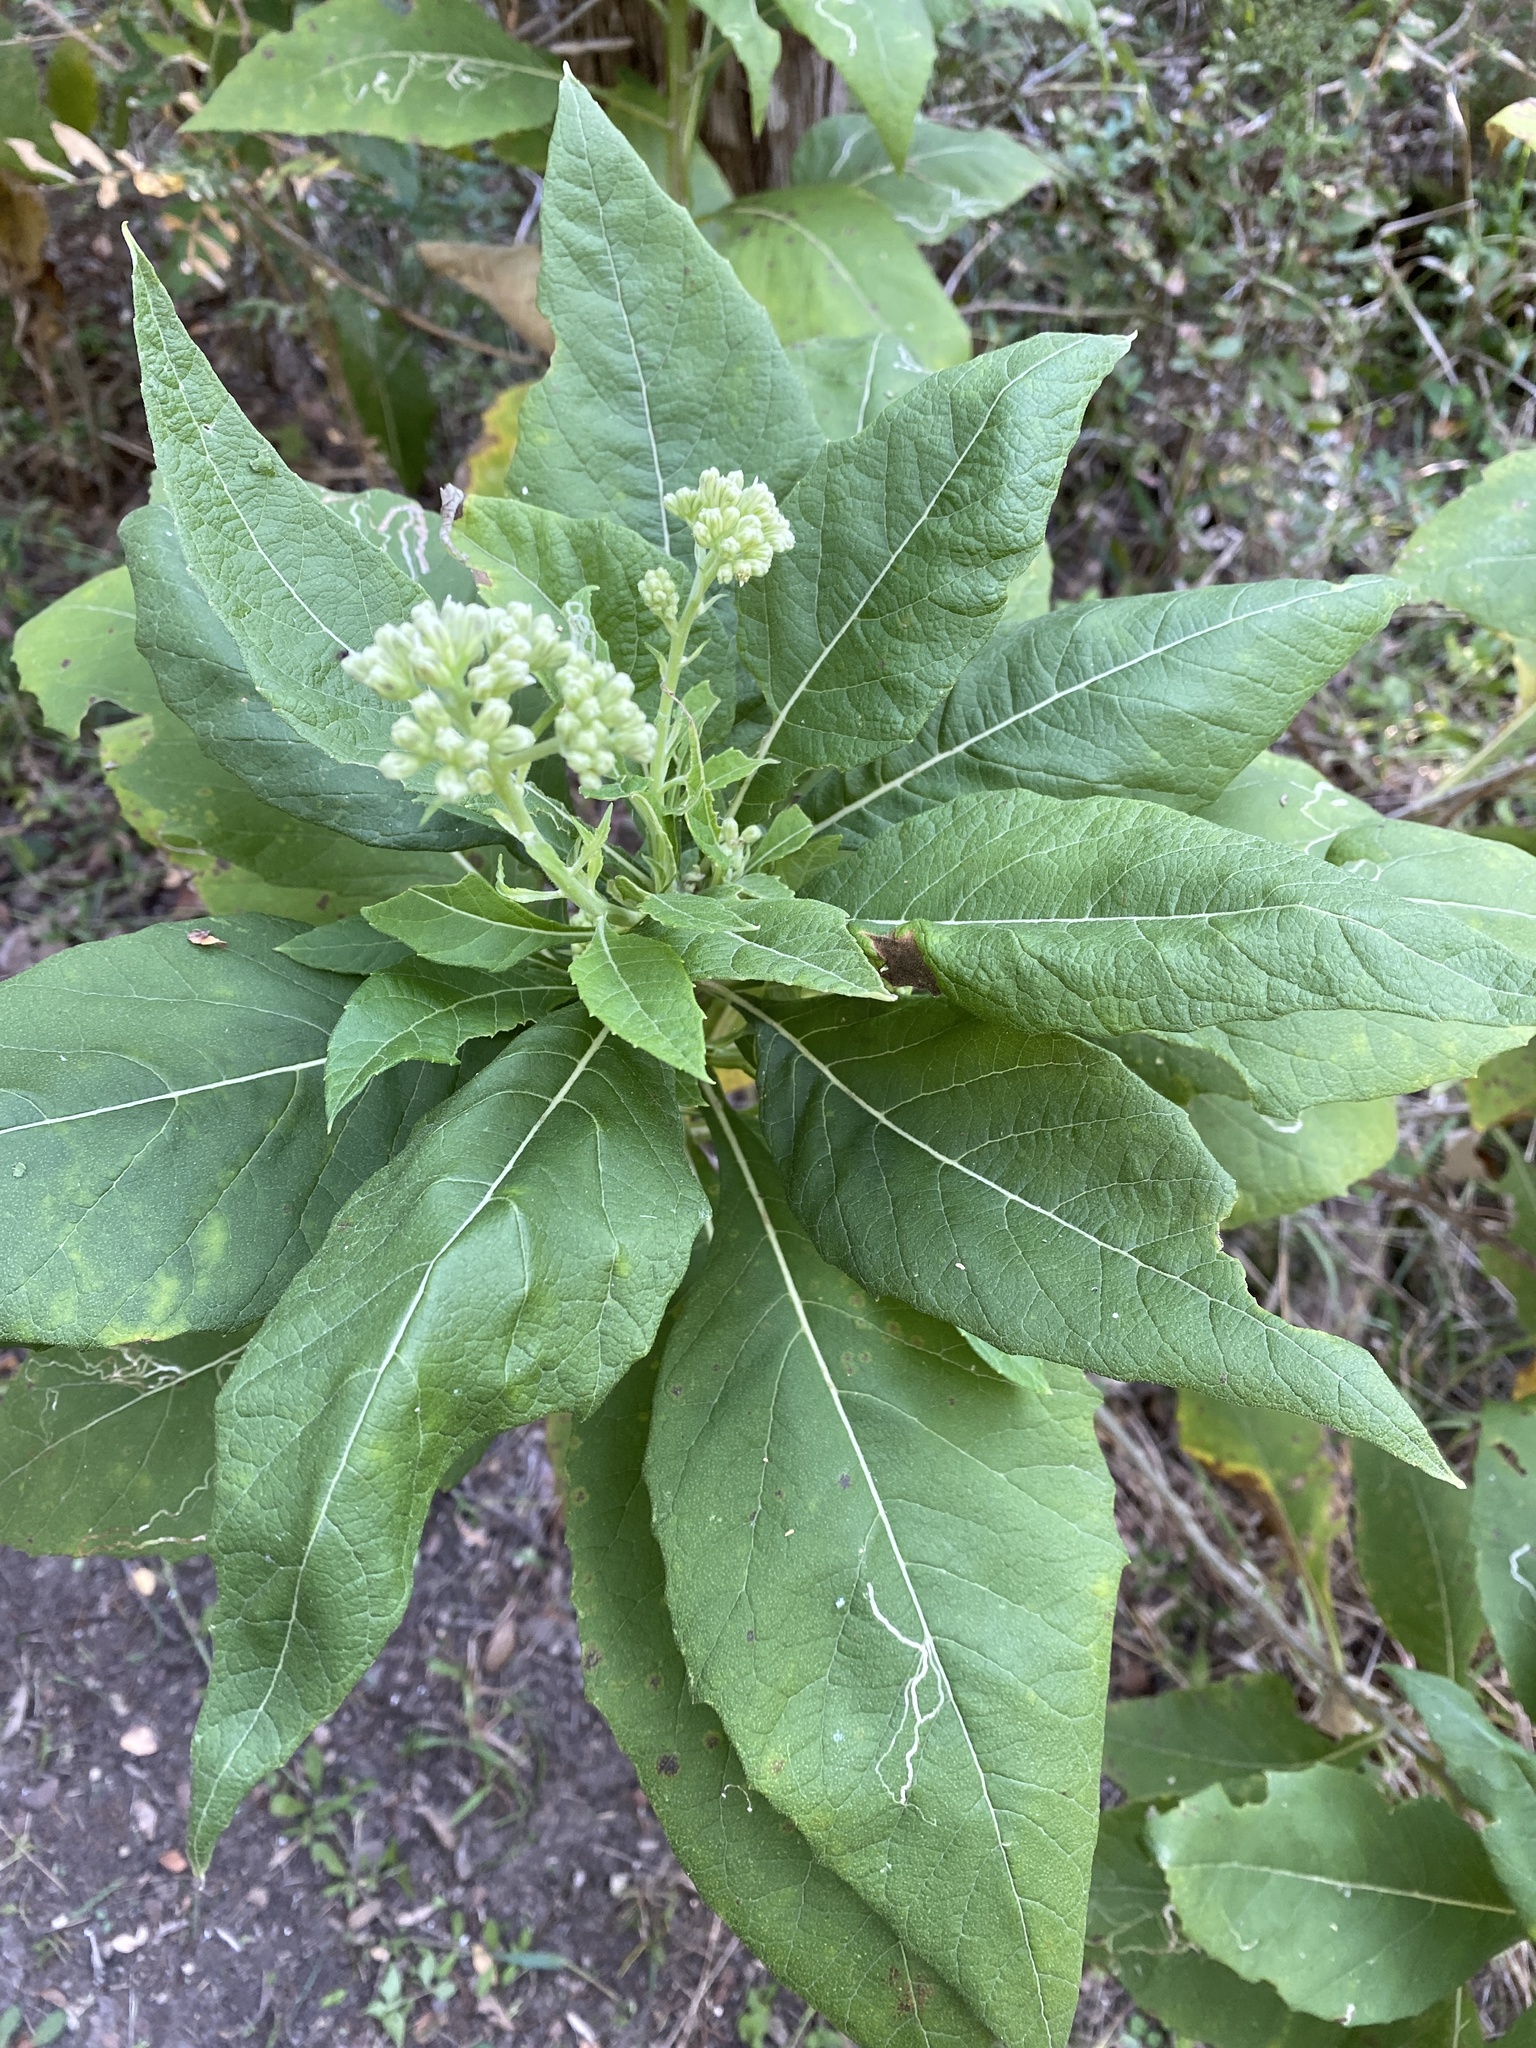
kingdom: Plantae
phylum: Tracheophyta
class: Magnoliopsida
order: Asterales
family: Asteraceae
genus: Verbesina
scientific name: Verbesina virginica
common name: Frostweed
